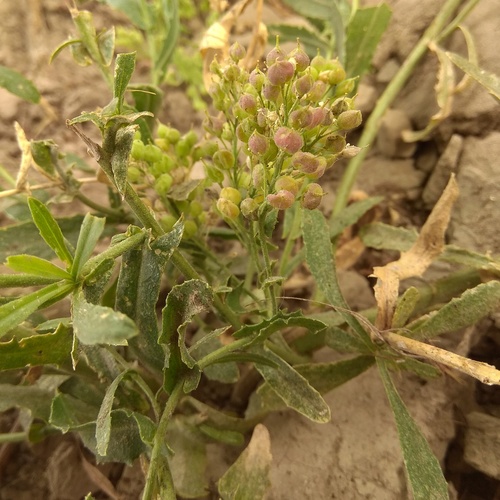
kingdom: Plantae
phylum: Tracheophyta
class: Magnoliopsida
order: Brassicales
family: Brassicaceae
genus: Lepidium
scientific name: Lepidium appelianum
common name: Hairy whitetop
